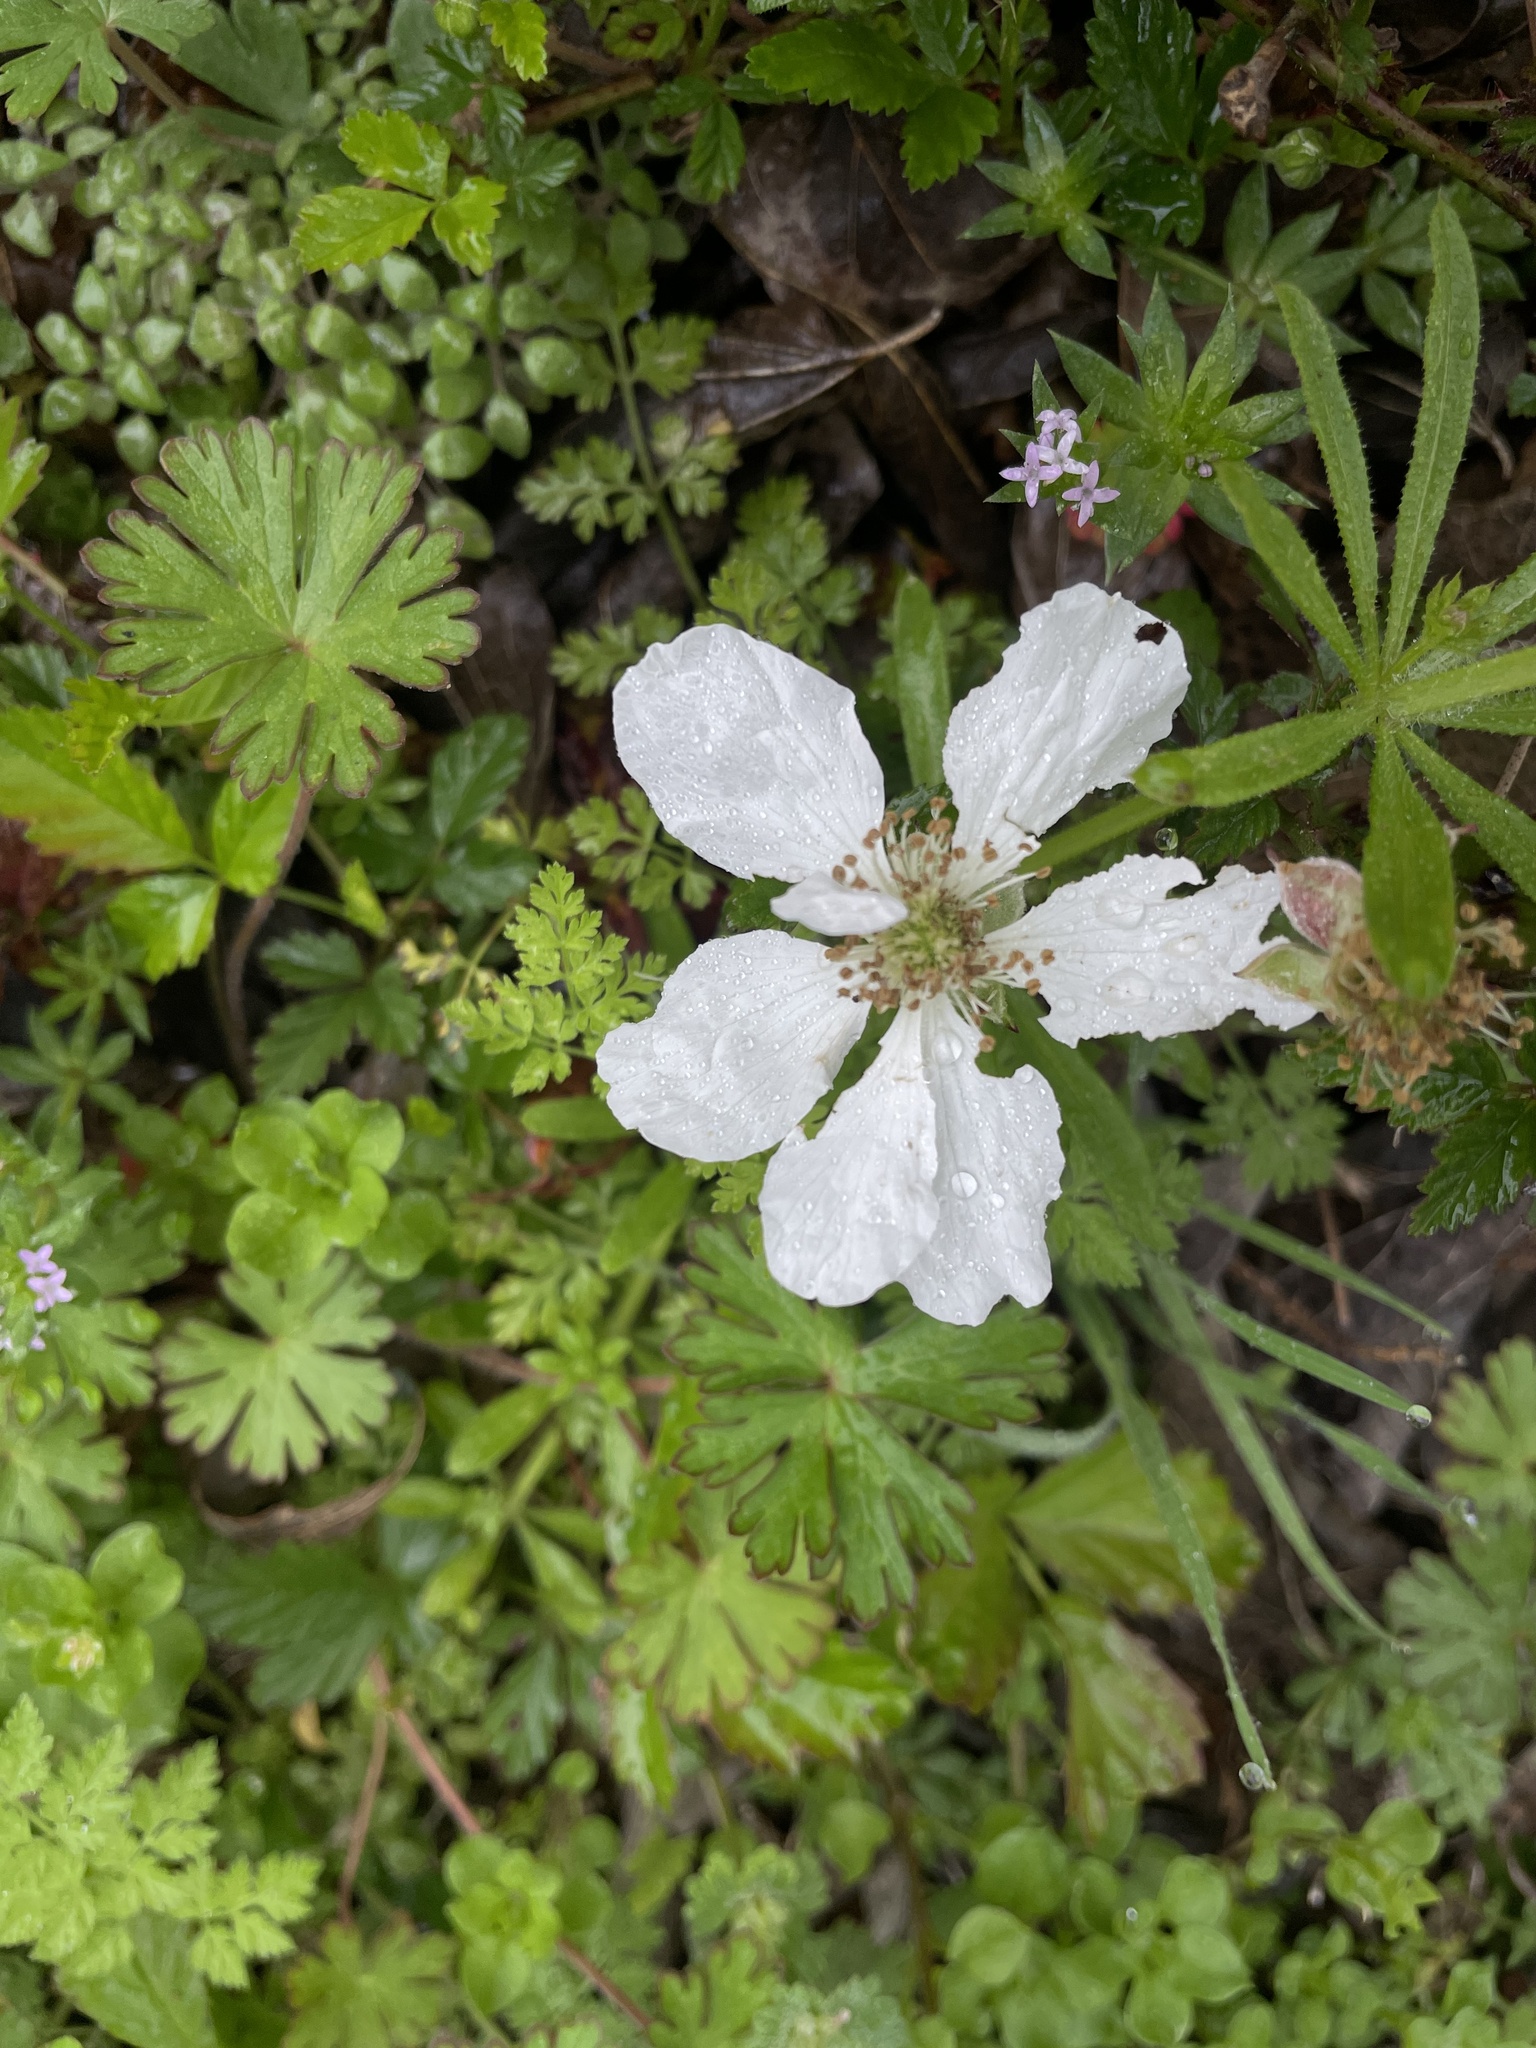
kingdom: Plantae
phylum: Tracheophyta
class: Magnoliopsida
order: Rosales
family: Rosaceae
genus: Rubus
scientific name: Rubus trivialis
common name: Southern dewberry
